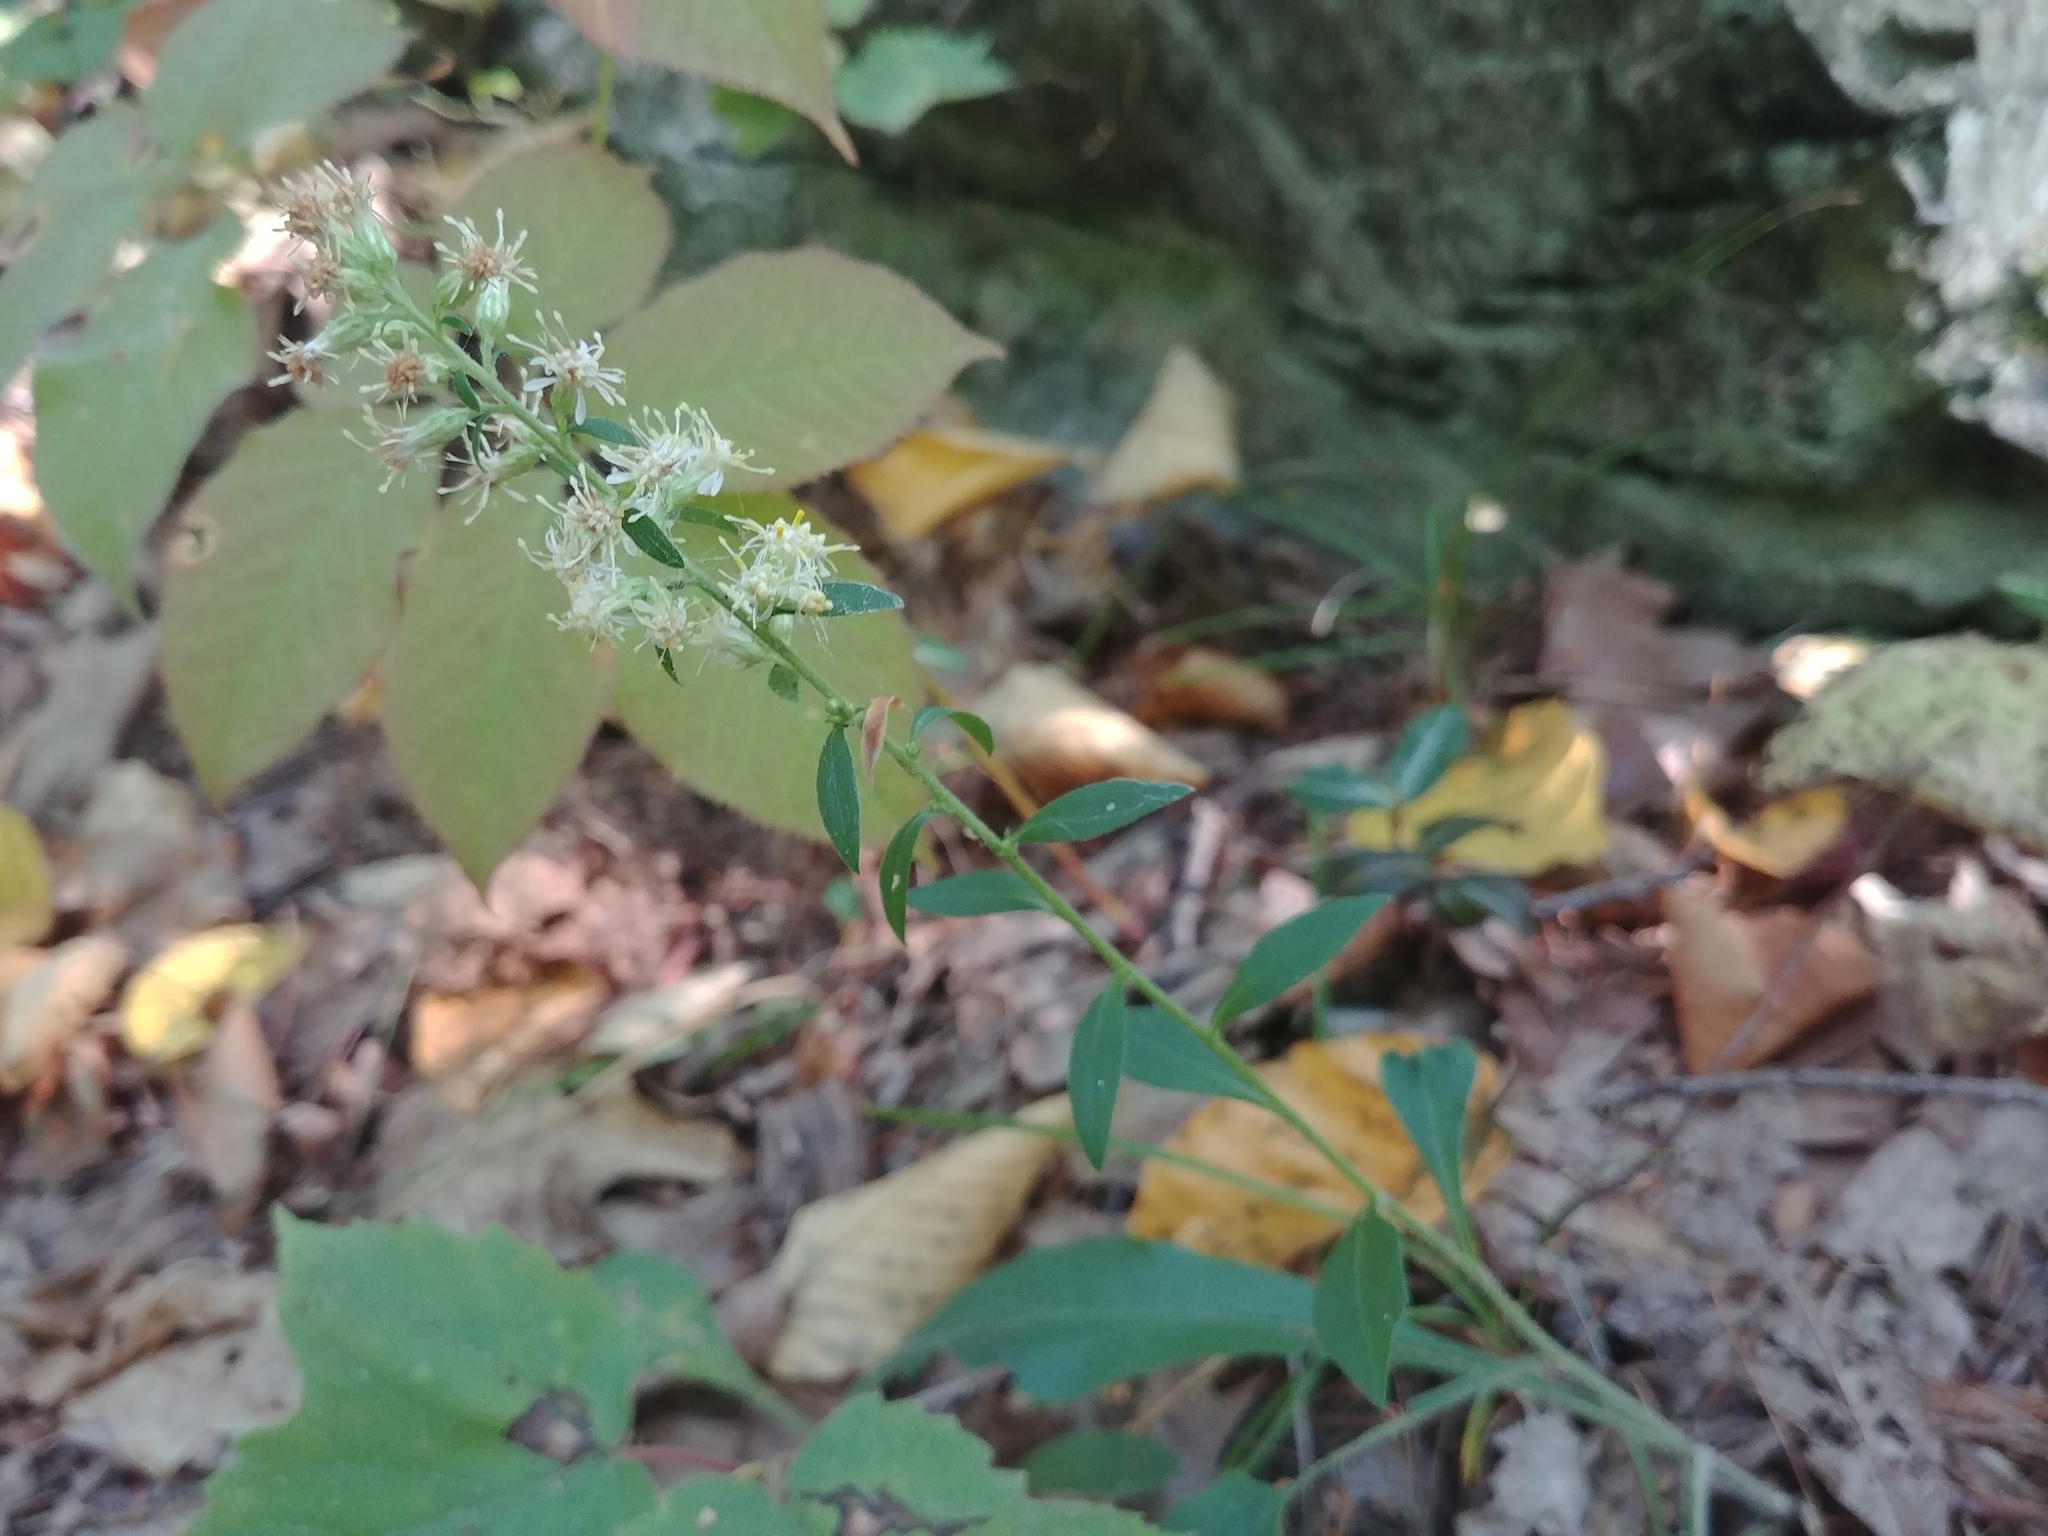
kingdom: Plantae
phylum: Tracheophyta
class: Magnoliopsida
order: Asterales
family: Asteraceae
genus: Solidago
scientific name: Solidago bicolor
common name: Silverrod
